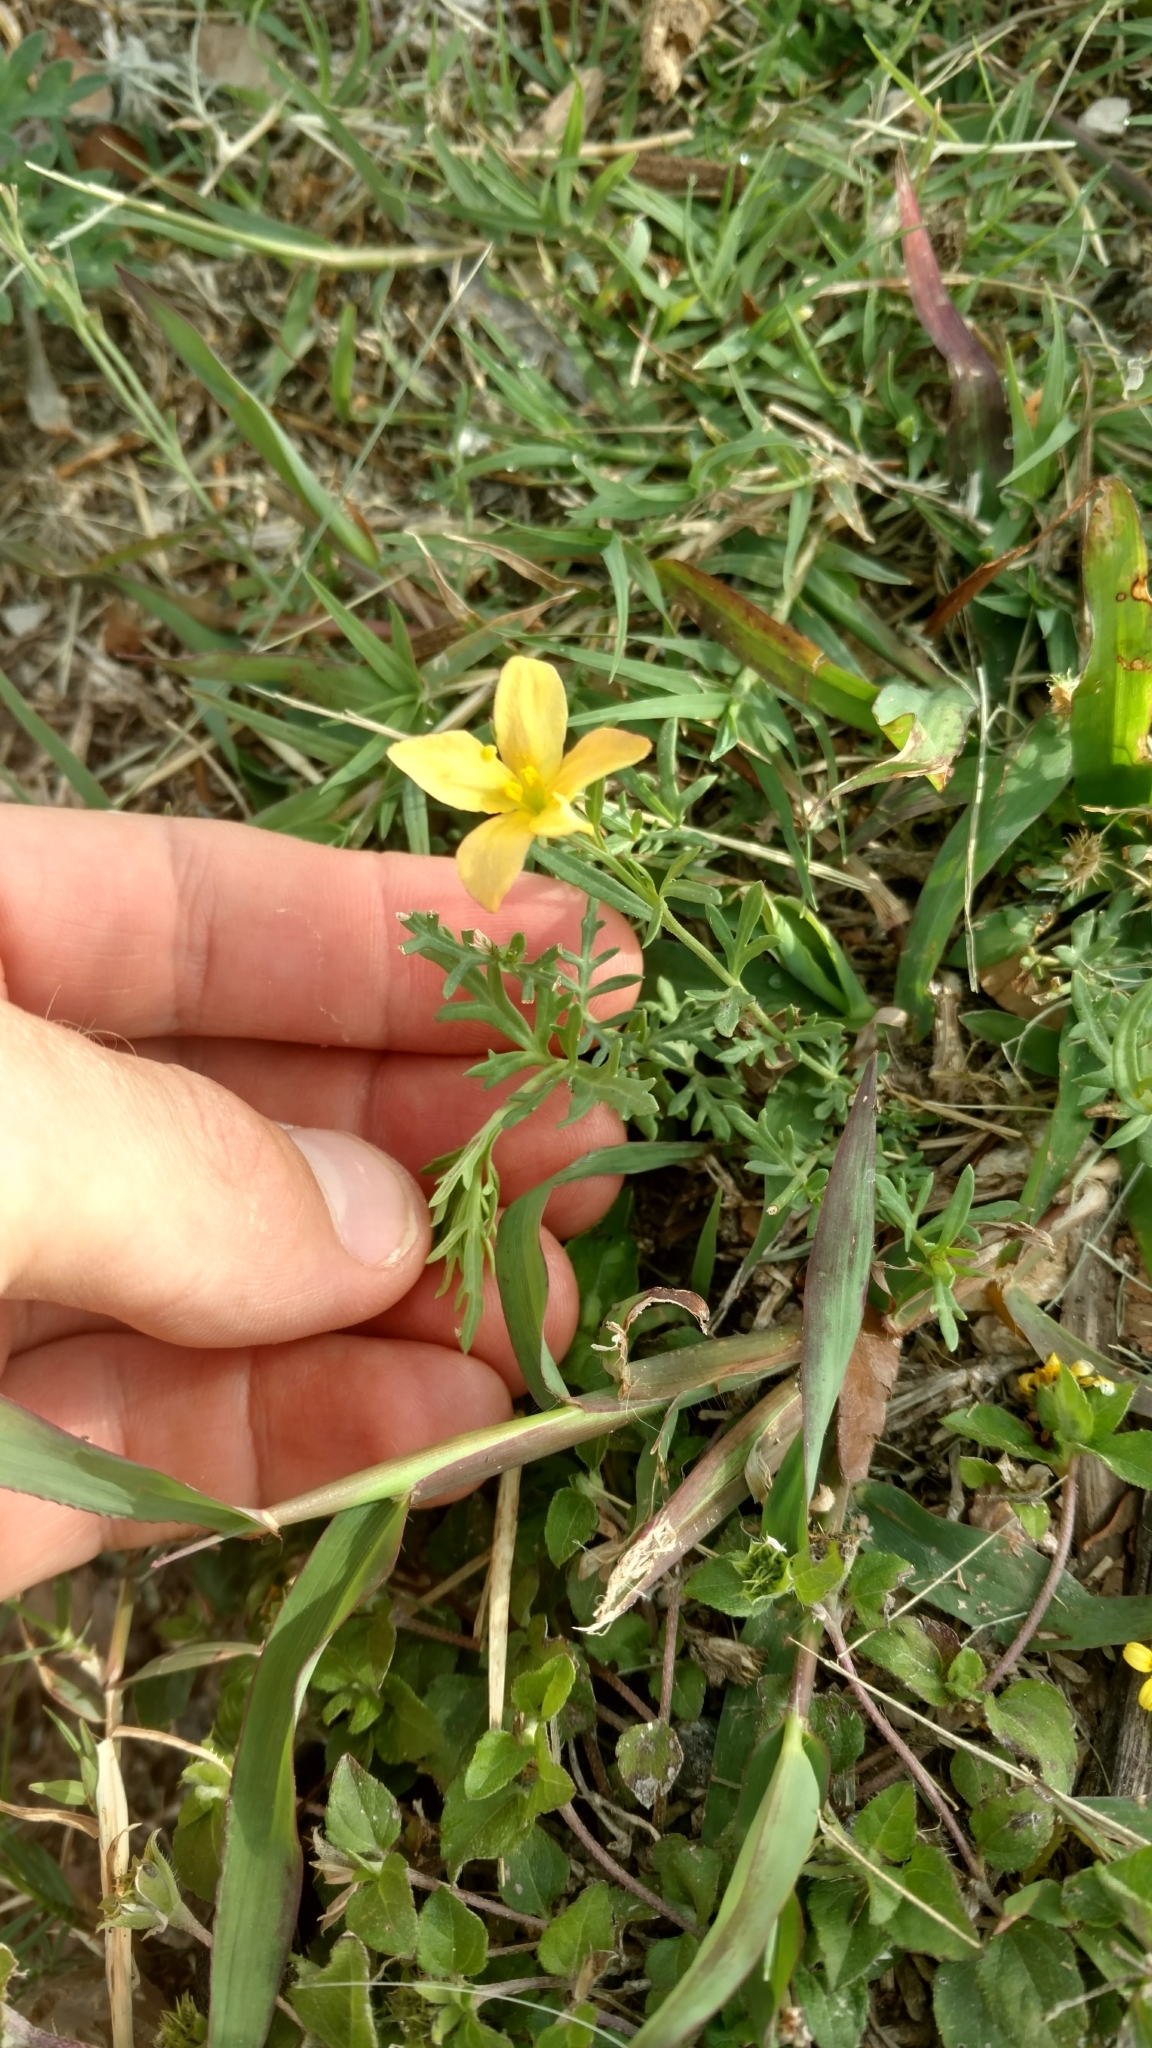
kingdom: Plantae
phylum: Tracheophyta
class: Magnoliopsida
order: Lamiales
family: Oleaceae
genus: Menodora
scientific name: Menodora heterophylla
